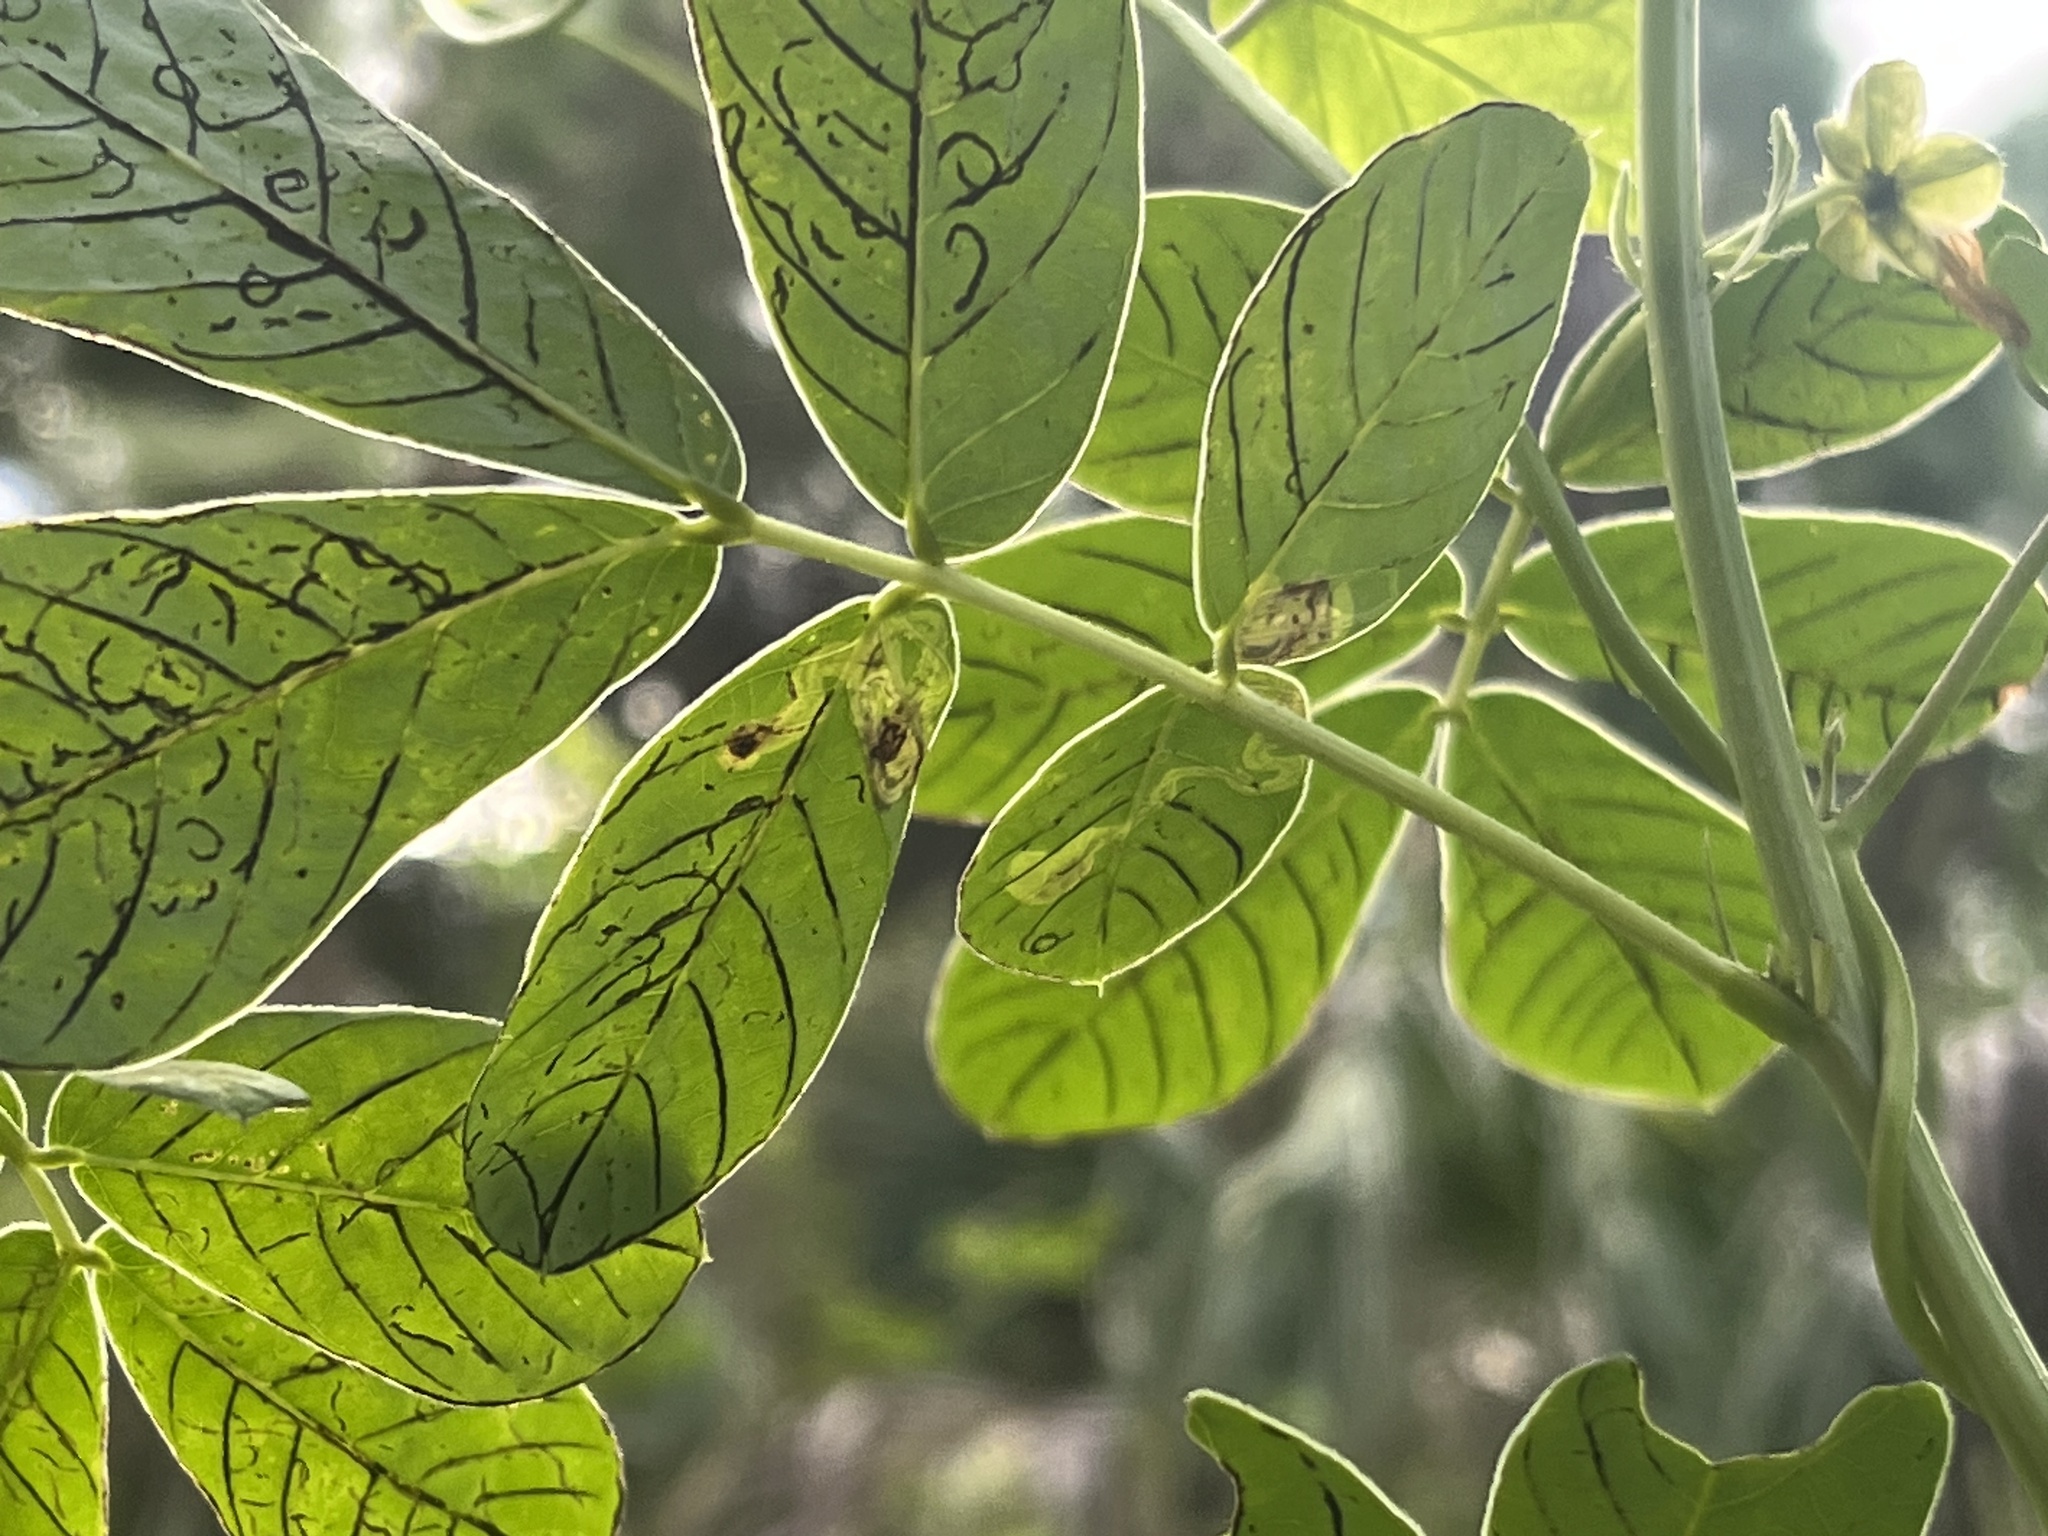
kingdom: Animalia
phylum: Arthropoda
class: Insecta
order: Diptera
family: Agromyzidae
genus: Calycomyza
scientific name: Calycomyza malvae
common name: Mallow leaf miner
